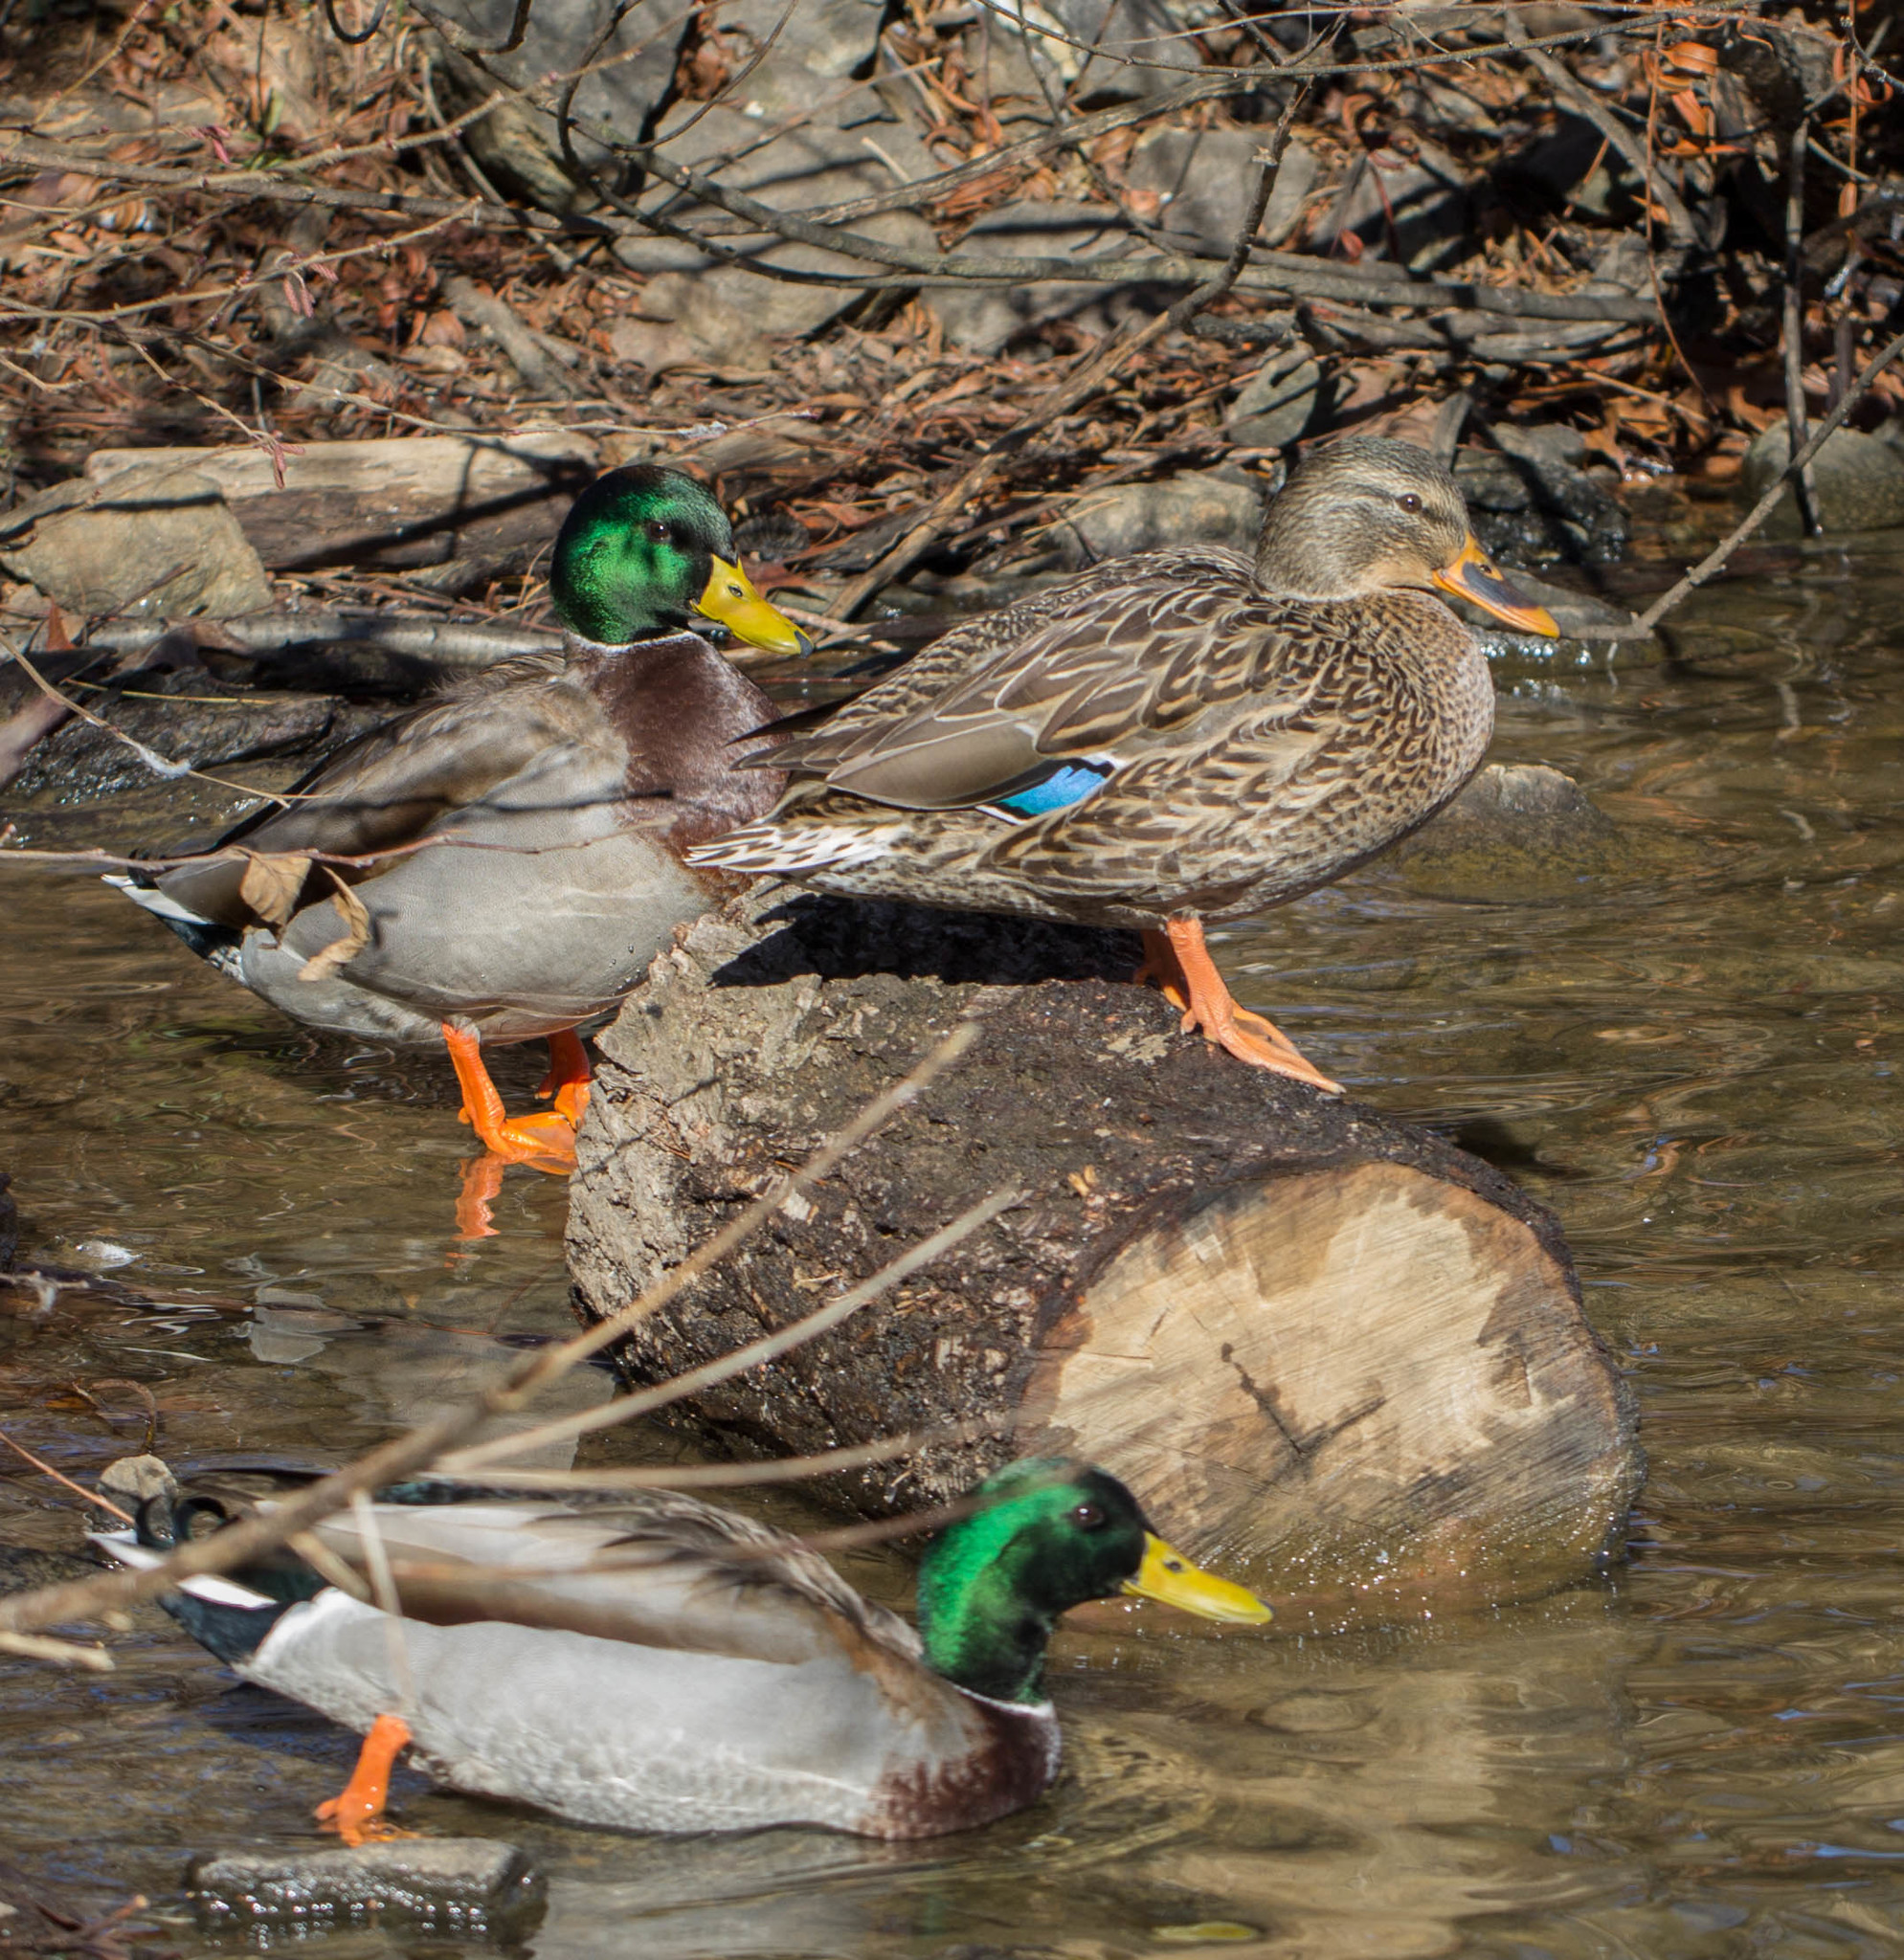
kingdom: Animalia
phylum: Chordata
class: Aves
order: Anseriformes
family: Anatidae
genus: Anas
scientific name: Anas platyrhynchos
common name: Mallard
